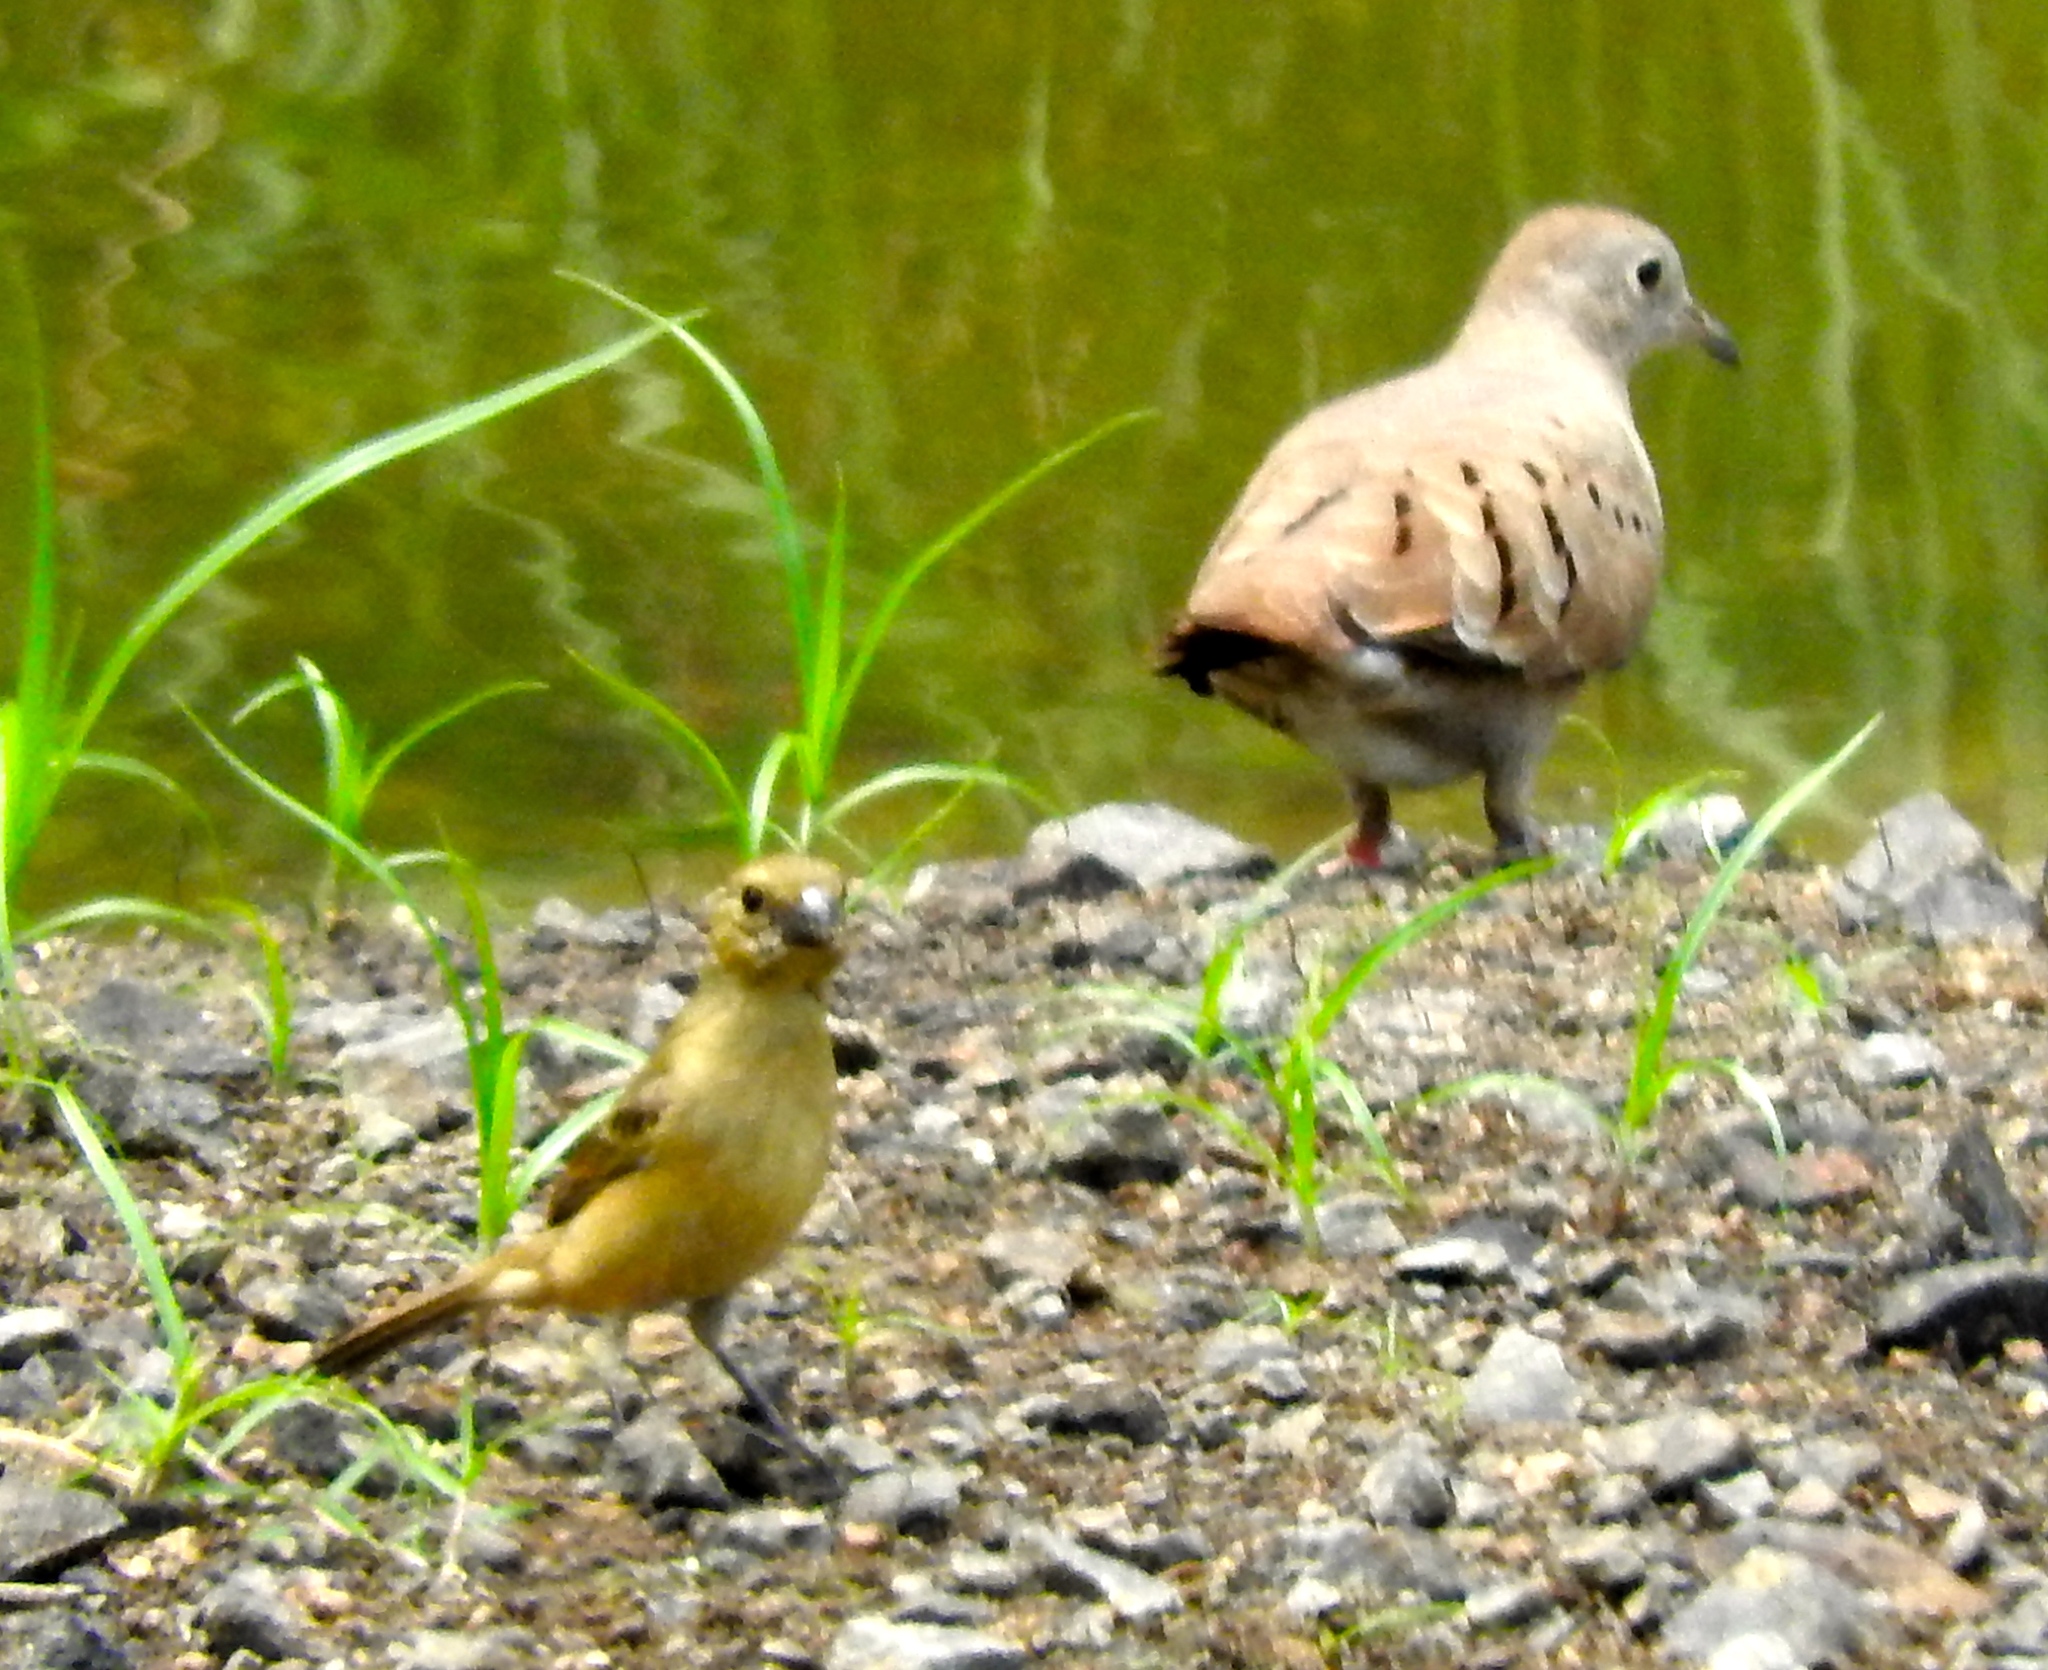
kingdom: Animalia
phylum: Chordata
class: Aves
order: Columbiformes
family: Columbidae
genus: Columbina
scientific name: Columbina talpacoti
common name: Ruddy ground dove
